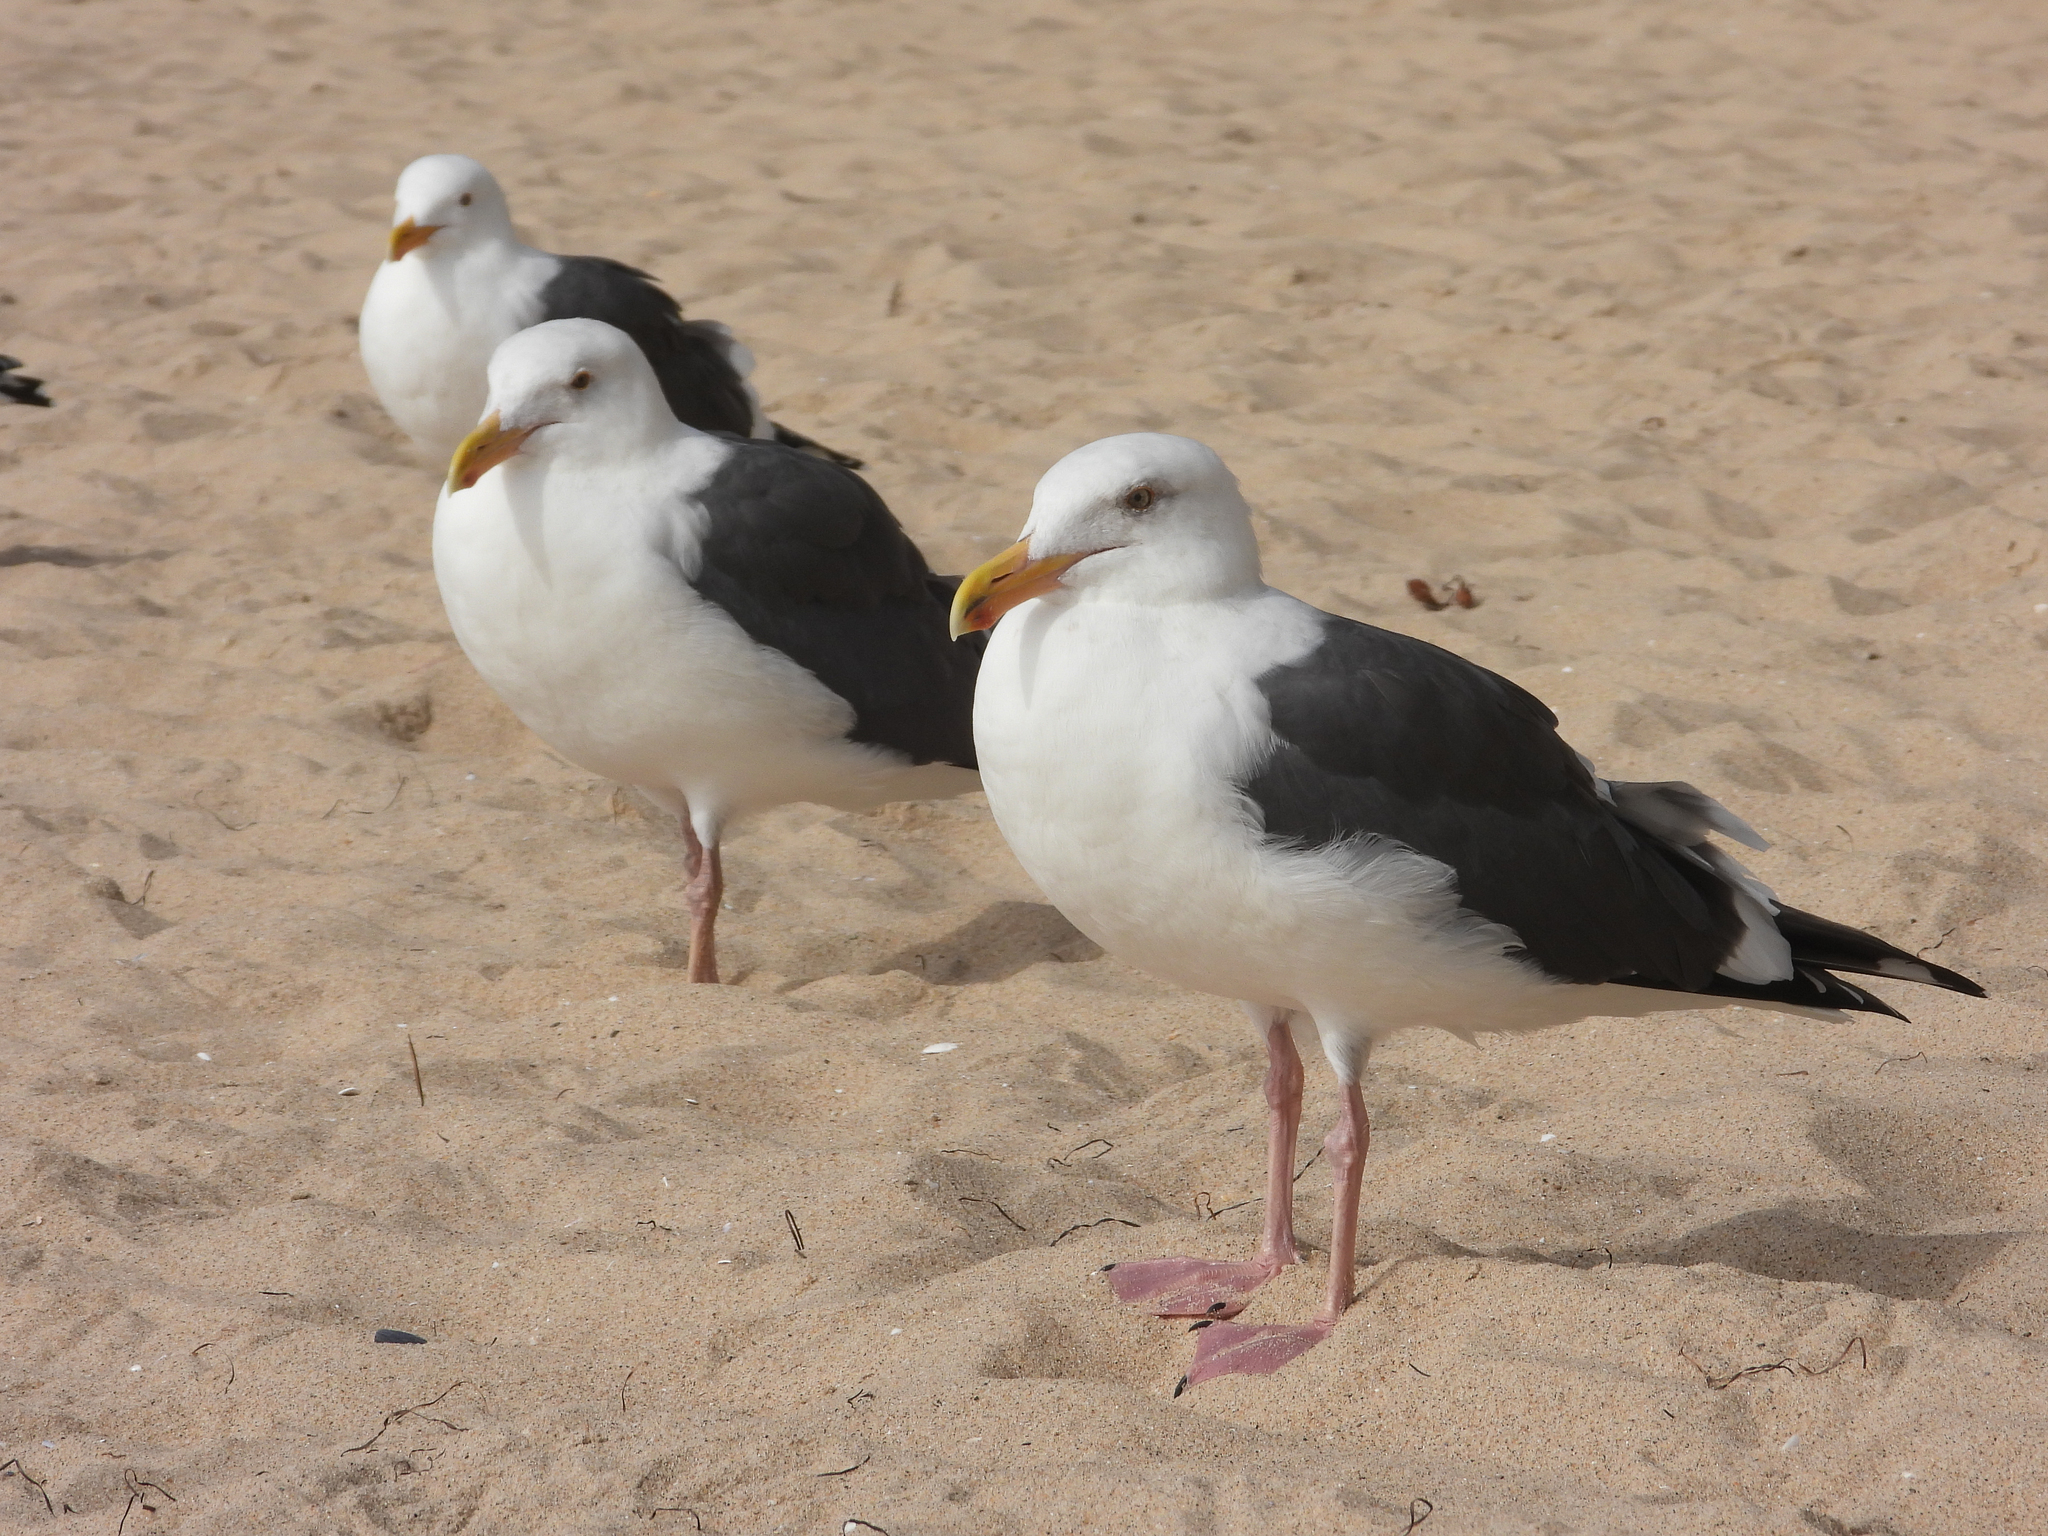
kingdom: Animalia
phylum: Chordata
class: Aves
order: Charadriiformes
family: Laridae
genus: Larus
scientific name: Larus occidentalis
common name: Western gull
